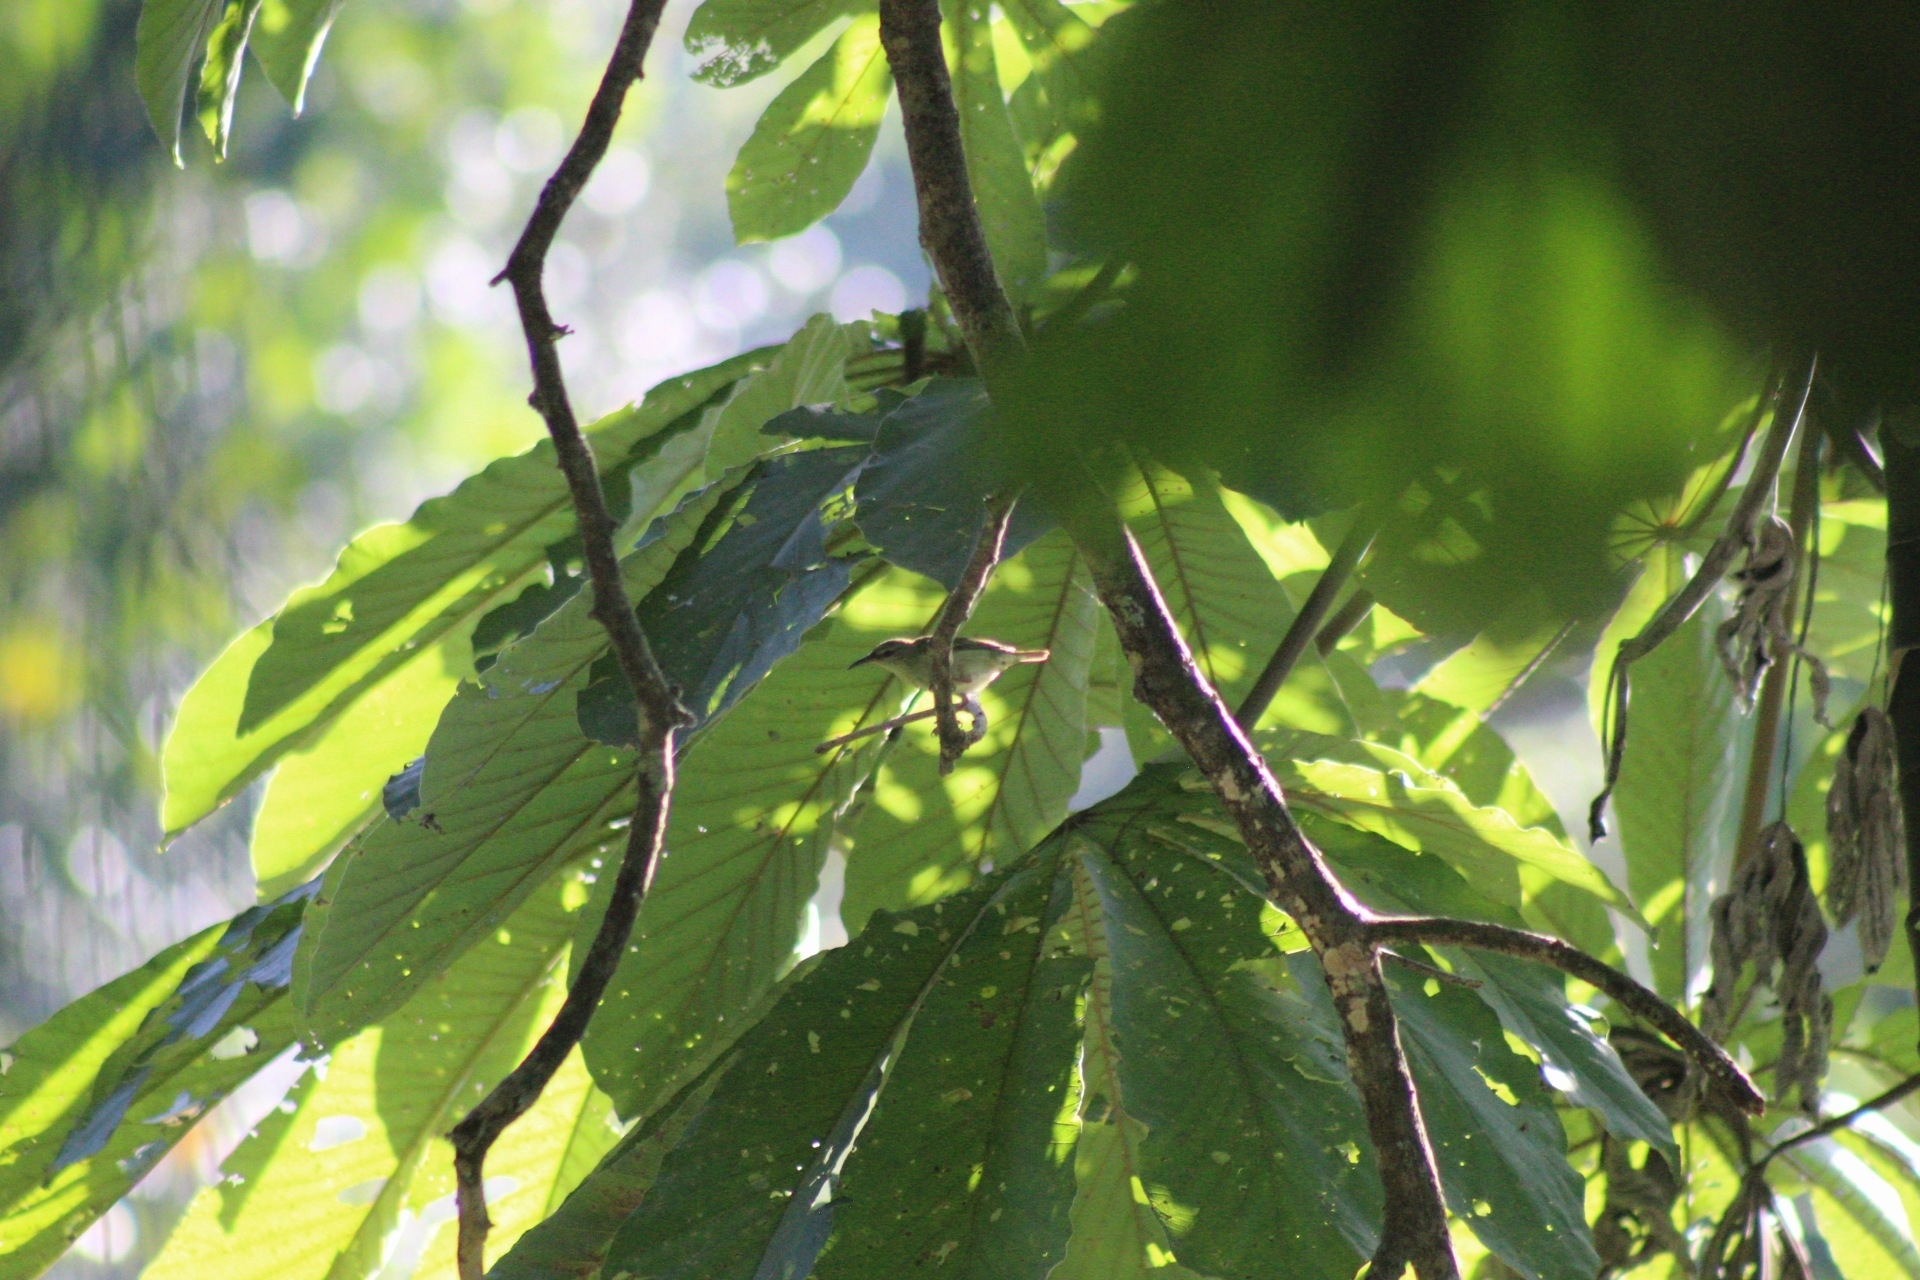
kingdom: Animalia
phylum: Chordata
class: Aves
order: Passeriformes
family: Thraupidae
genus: Cyanerpes
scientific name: Cyanerpes cyaneus
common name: Red-legged honeycreeper
